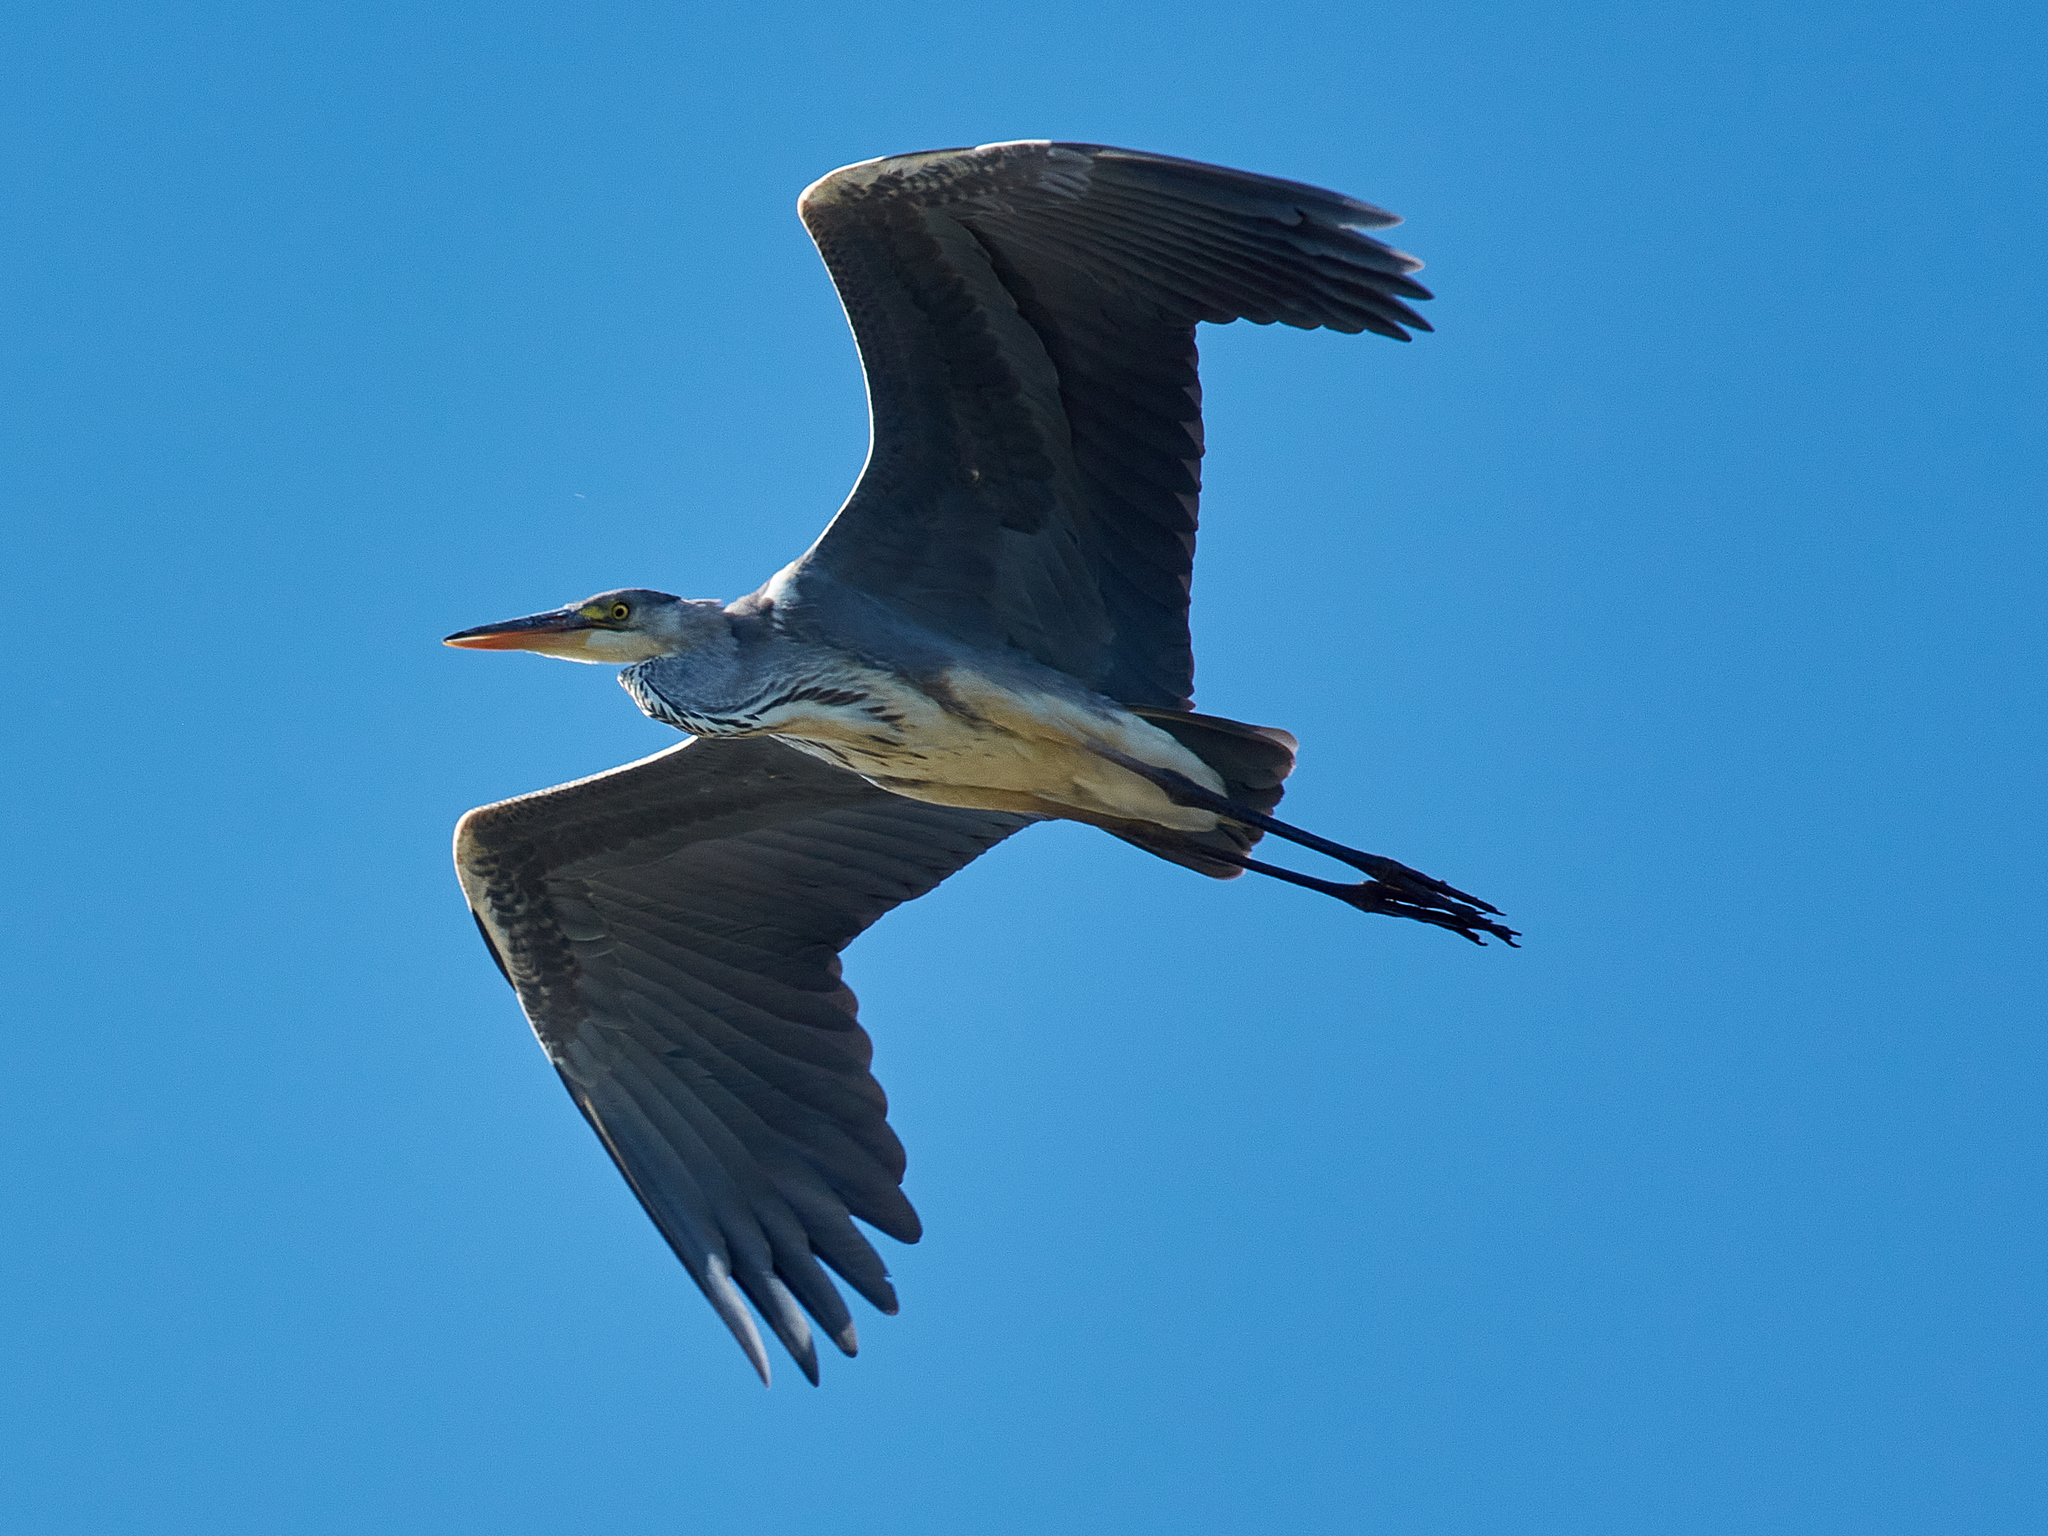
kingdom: Animalia
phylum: Chordata
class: Aves
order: Pelecaniformes
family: Ardeidae
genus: Ardea
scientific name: Ardea cinerea
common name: Grey heron
